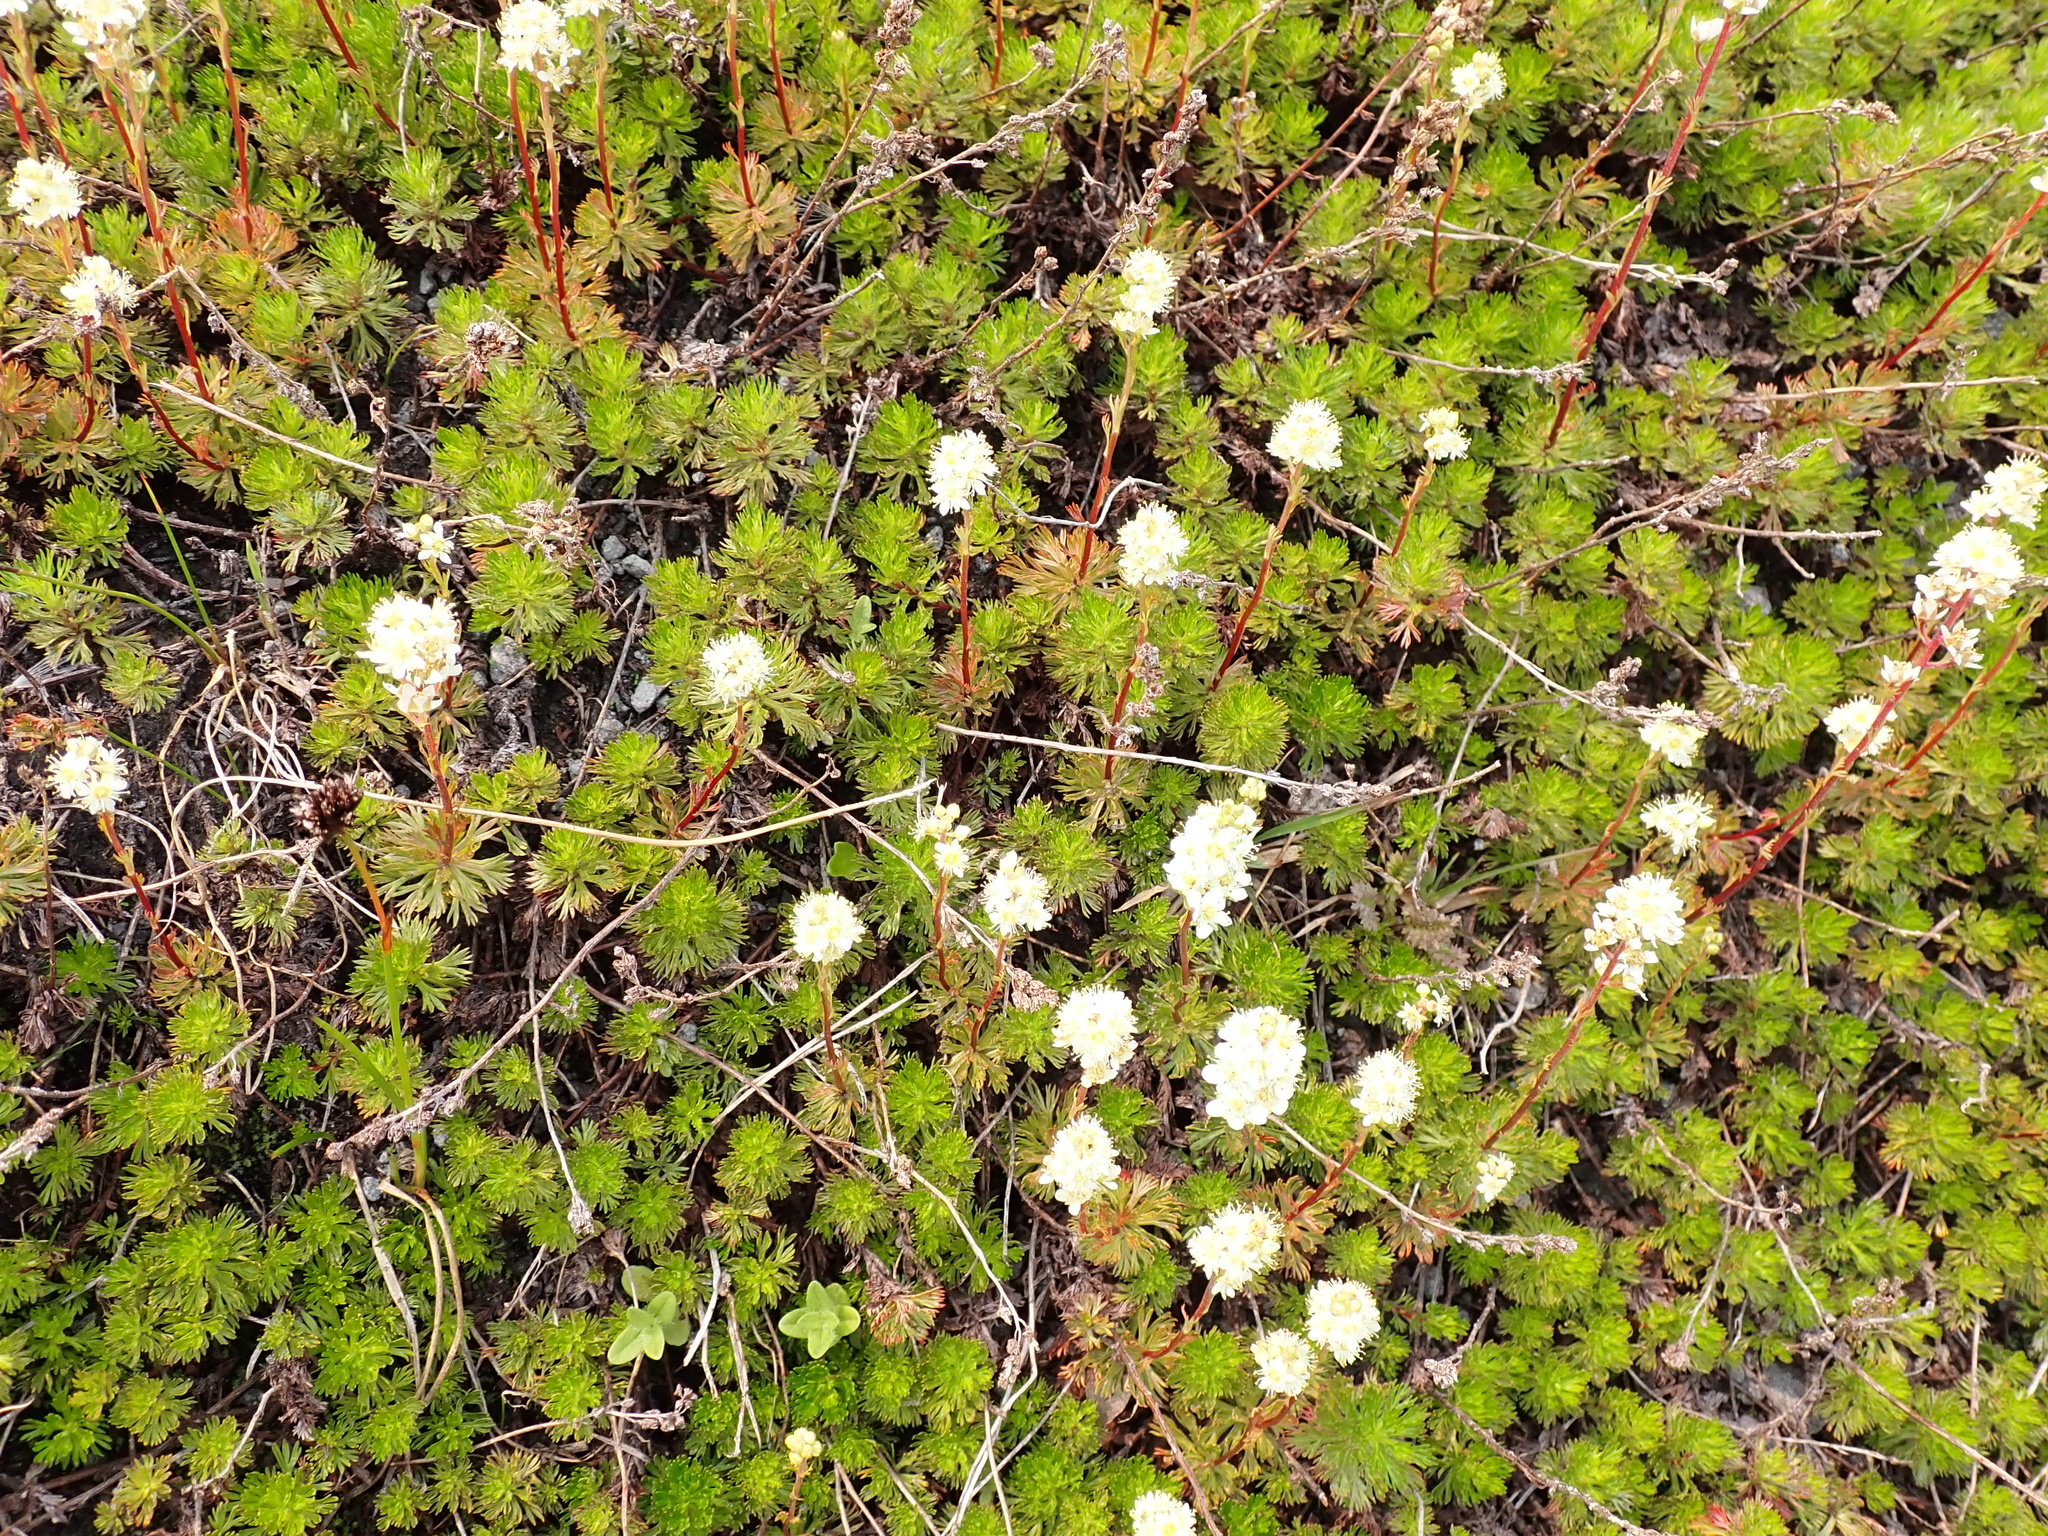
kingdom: Plantae
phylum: Tracheophyta
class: Magnoliopsida
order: Rosales
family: Rosaceae
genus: Luetkea
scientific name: Luetkea pectinata
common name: Partridgefoot
